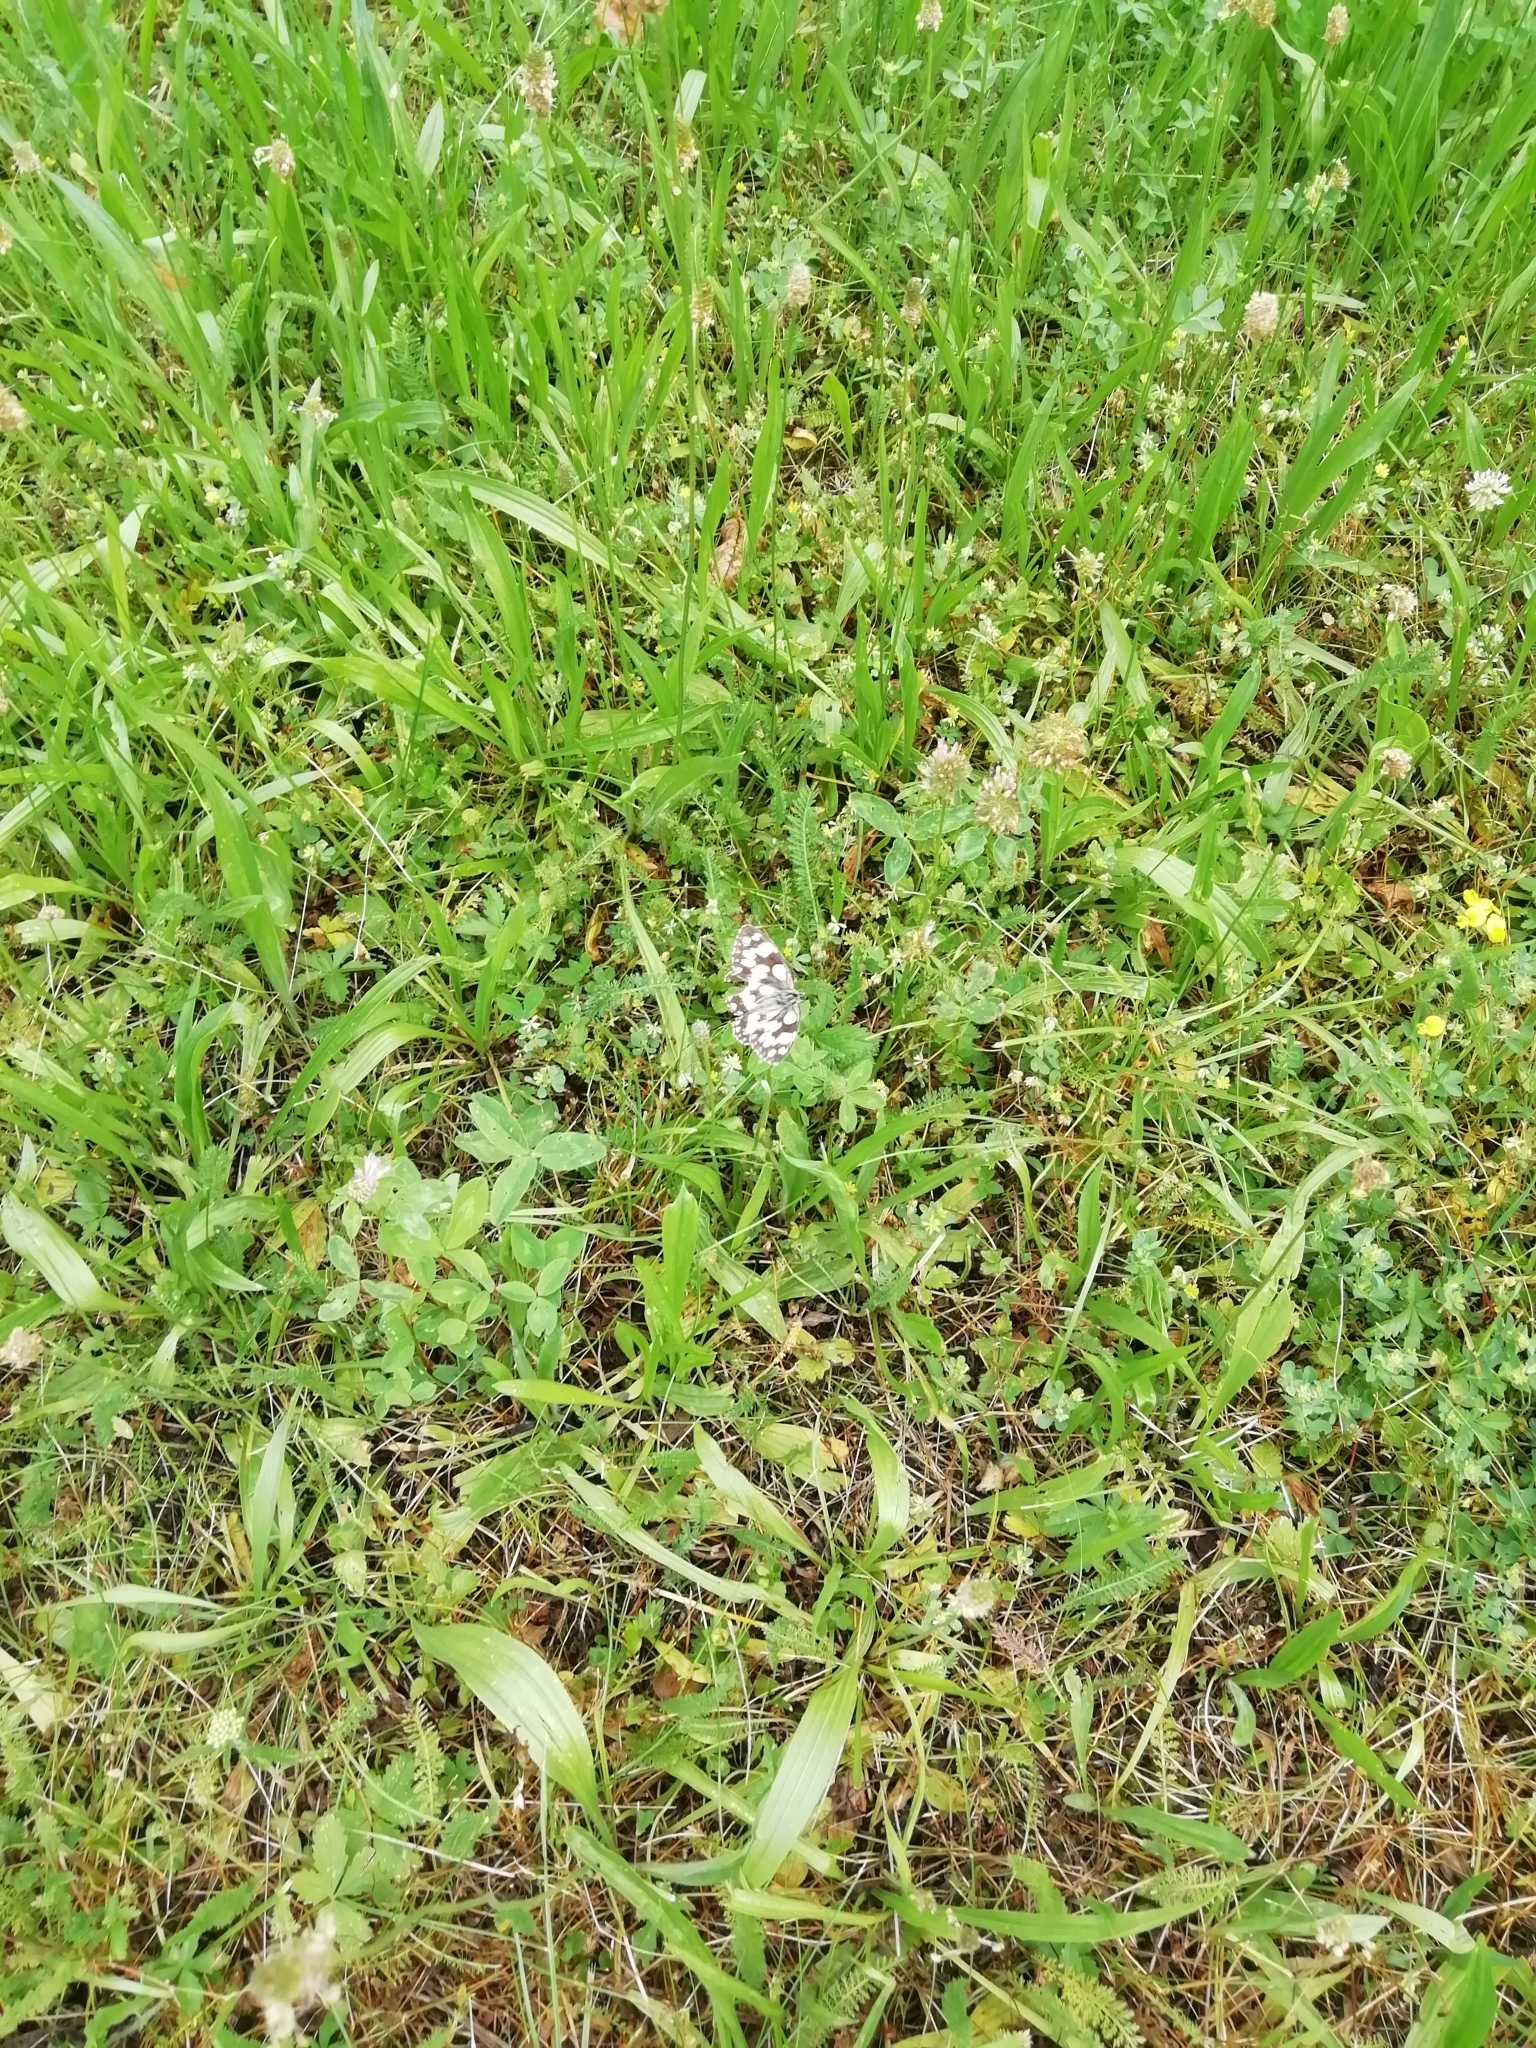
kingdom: Animalia
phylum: Arthropoda
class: Insecta
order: Lepidoptera
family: Nymphalidae
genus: Melanargia
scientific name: Melanargia galathea
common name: Marbled white
